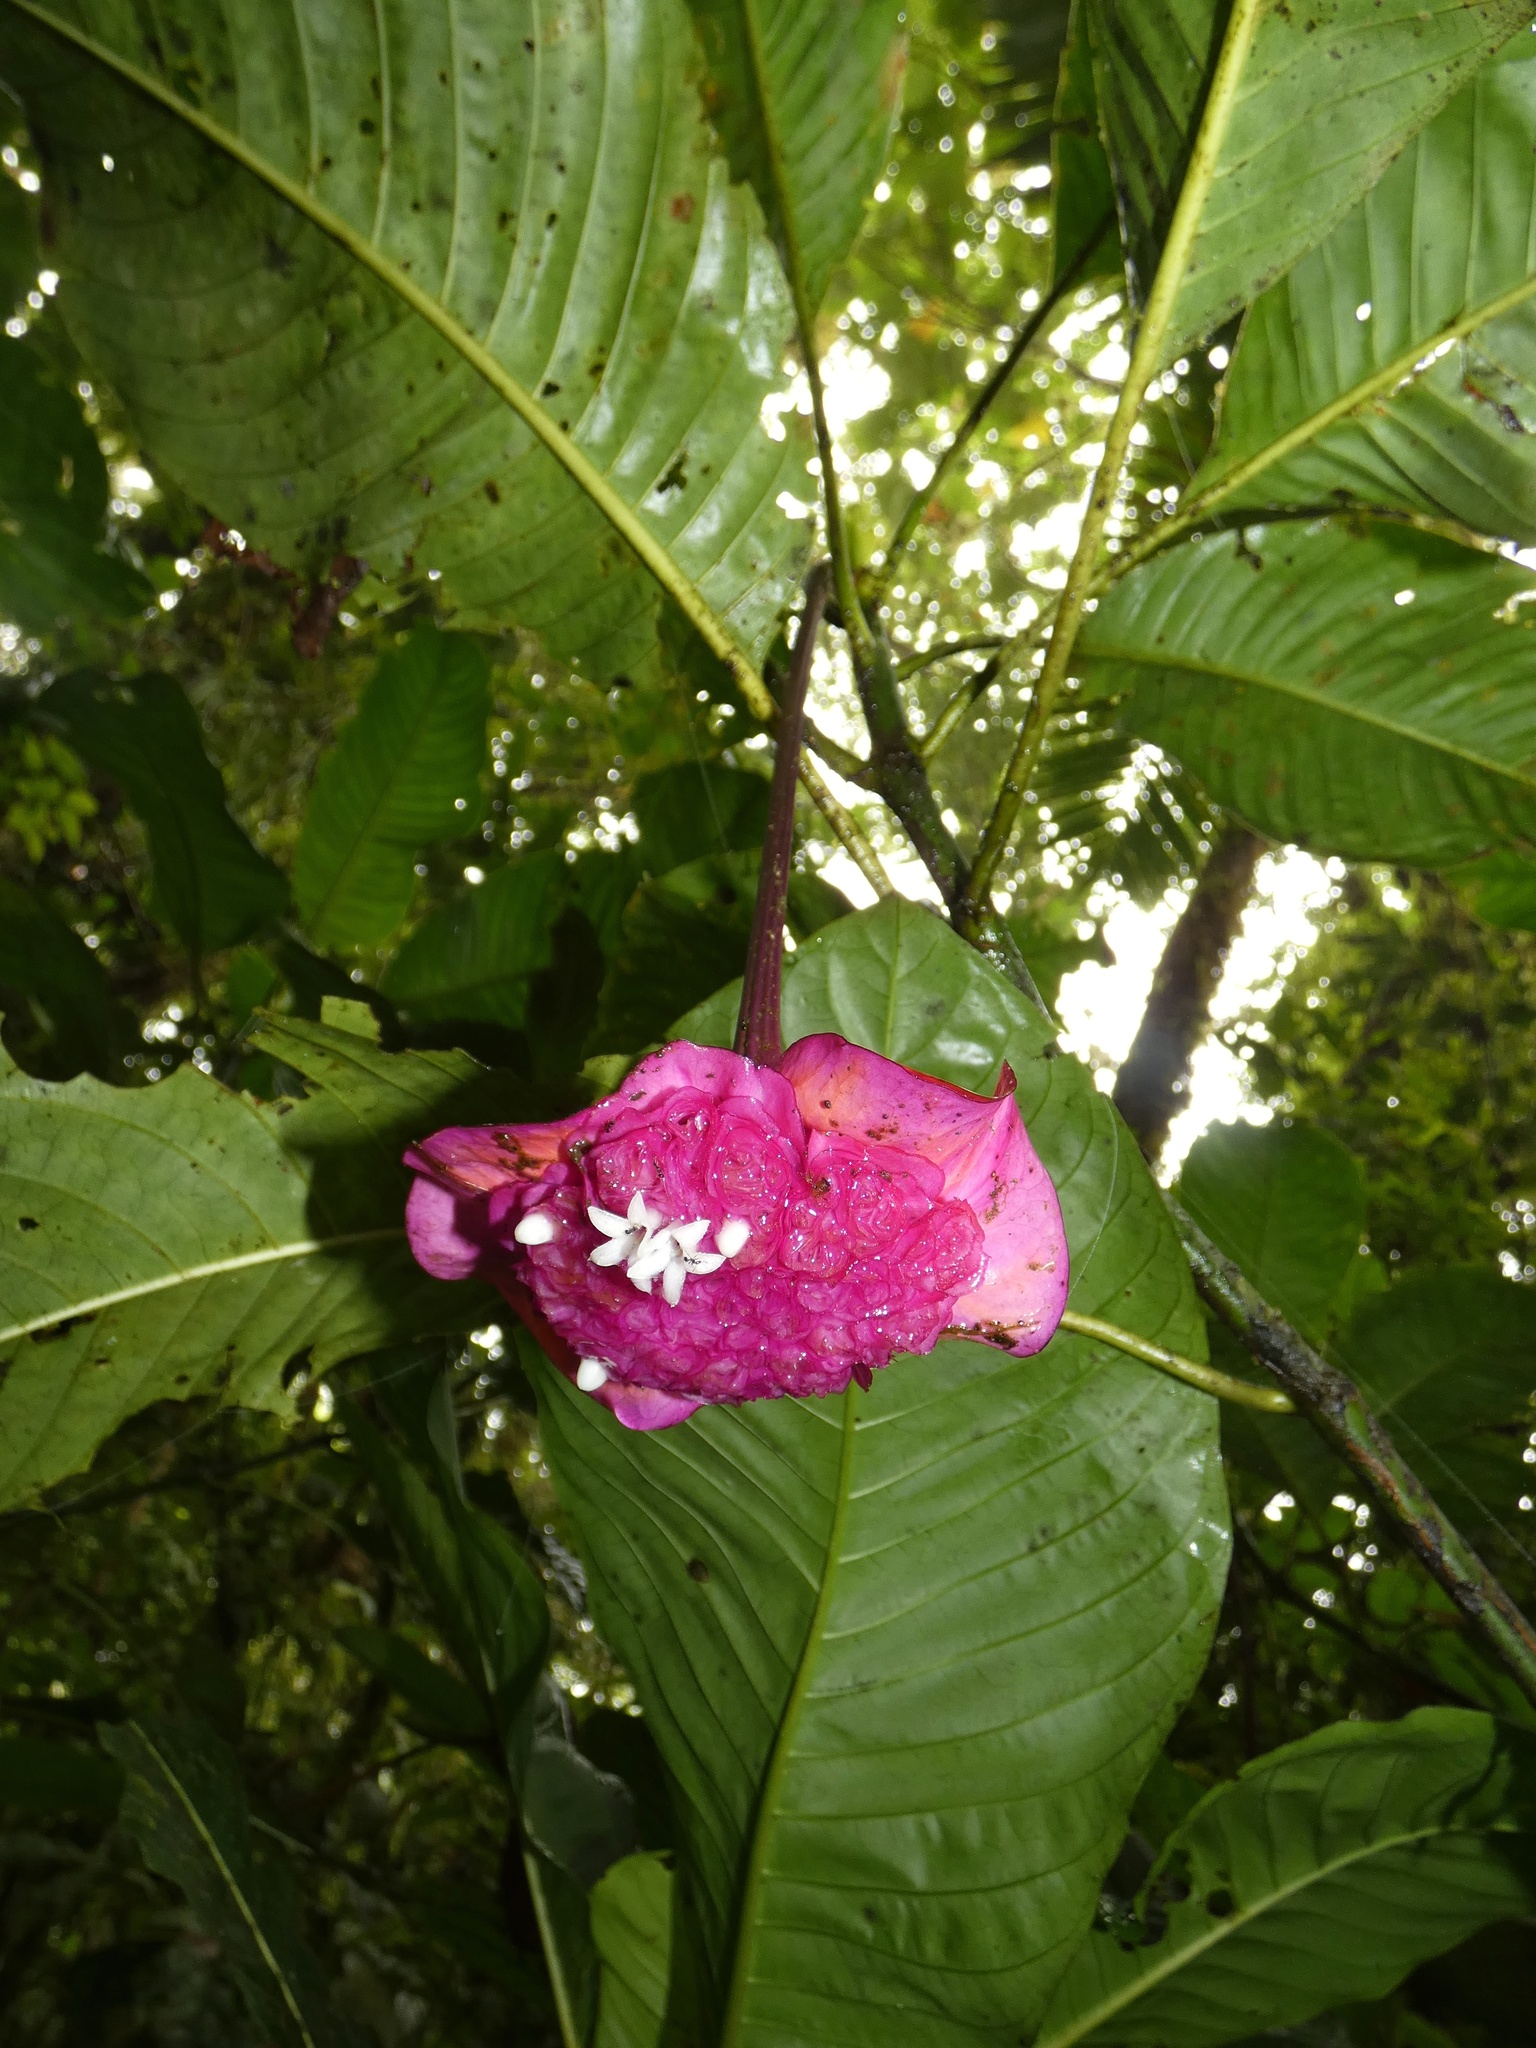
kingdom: Plantae
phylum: Tracheophyta
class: Magnoliopsida
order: Gentianales
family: Rubiaceae
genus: Palicourea
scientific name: Palicourea correae
